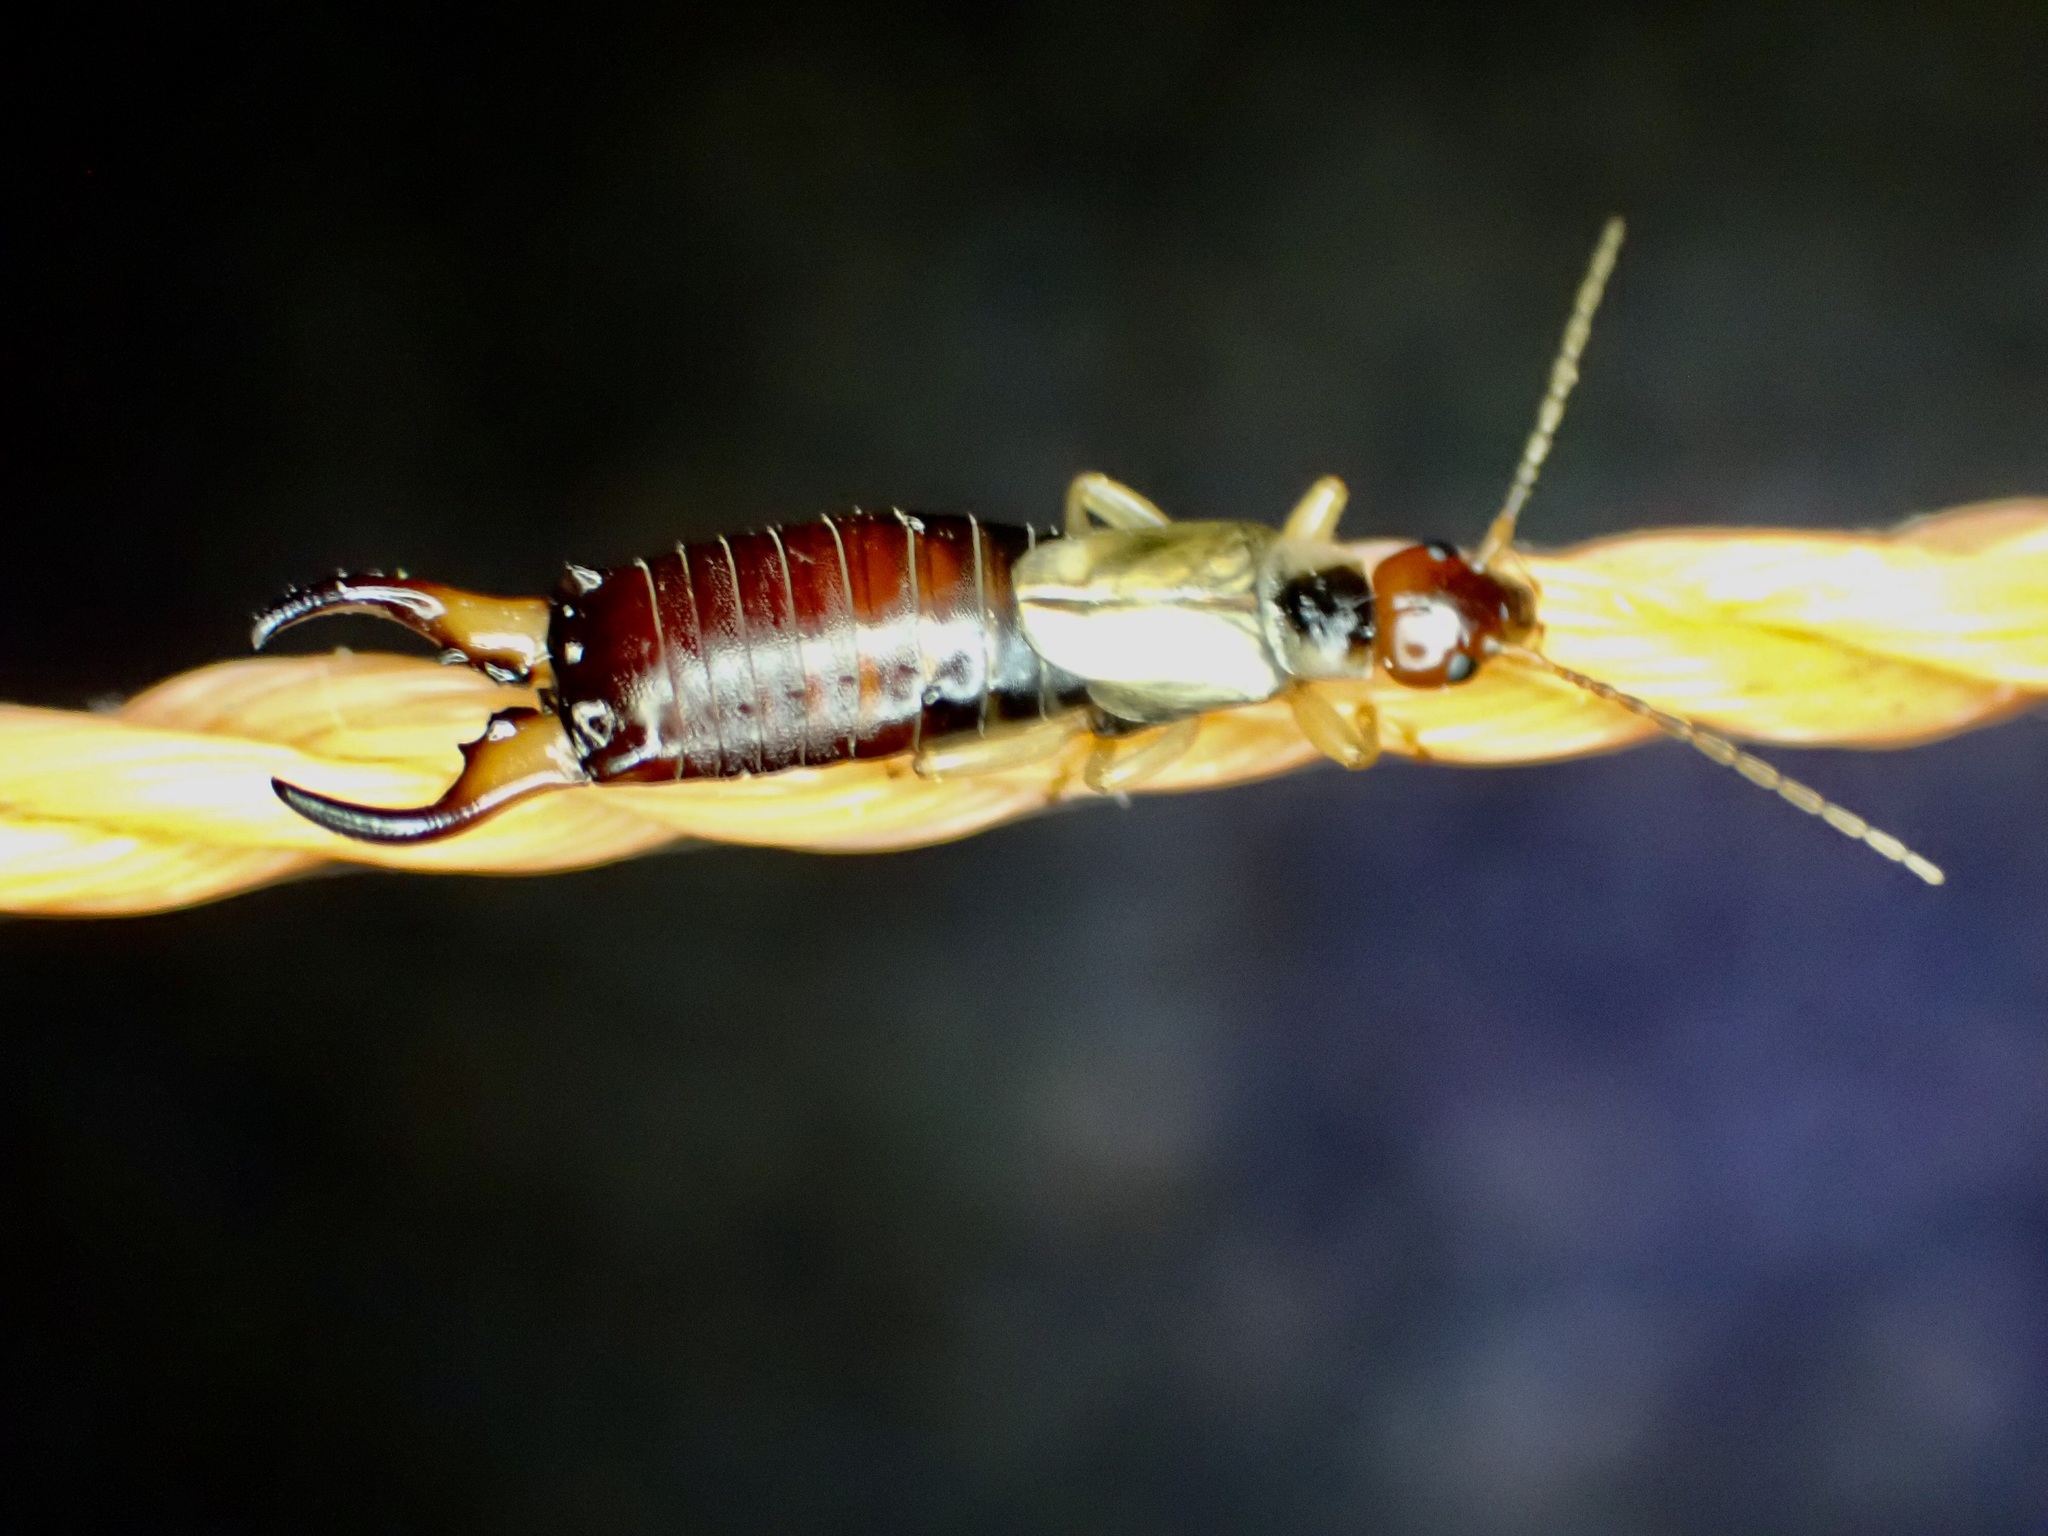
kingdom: Animalia
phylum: Arthropoda
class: Insecta
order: Dermaptera
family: Forficulidae
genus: Forficula
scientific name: Forficula
